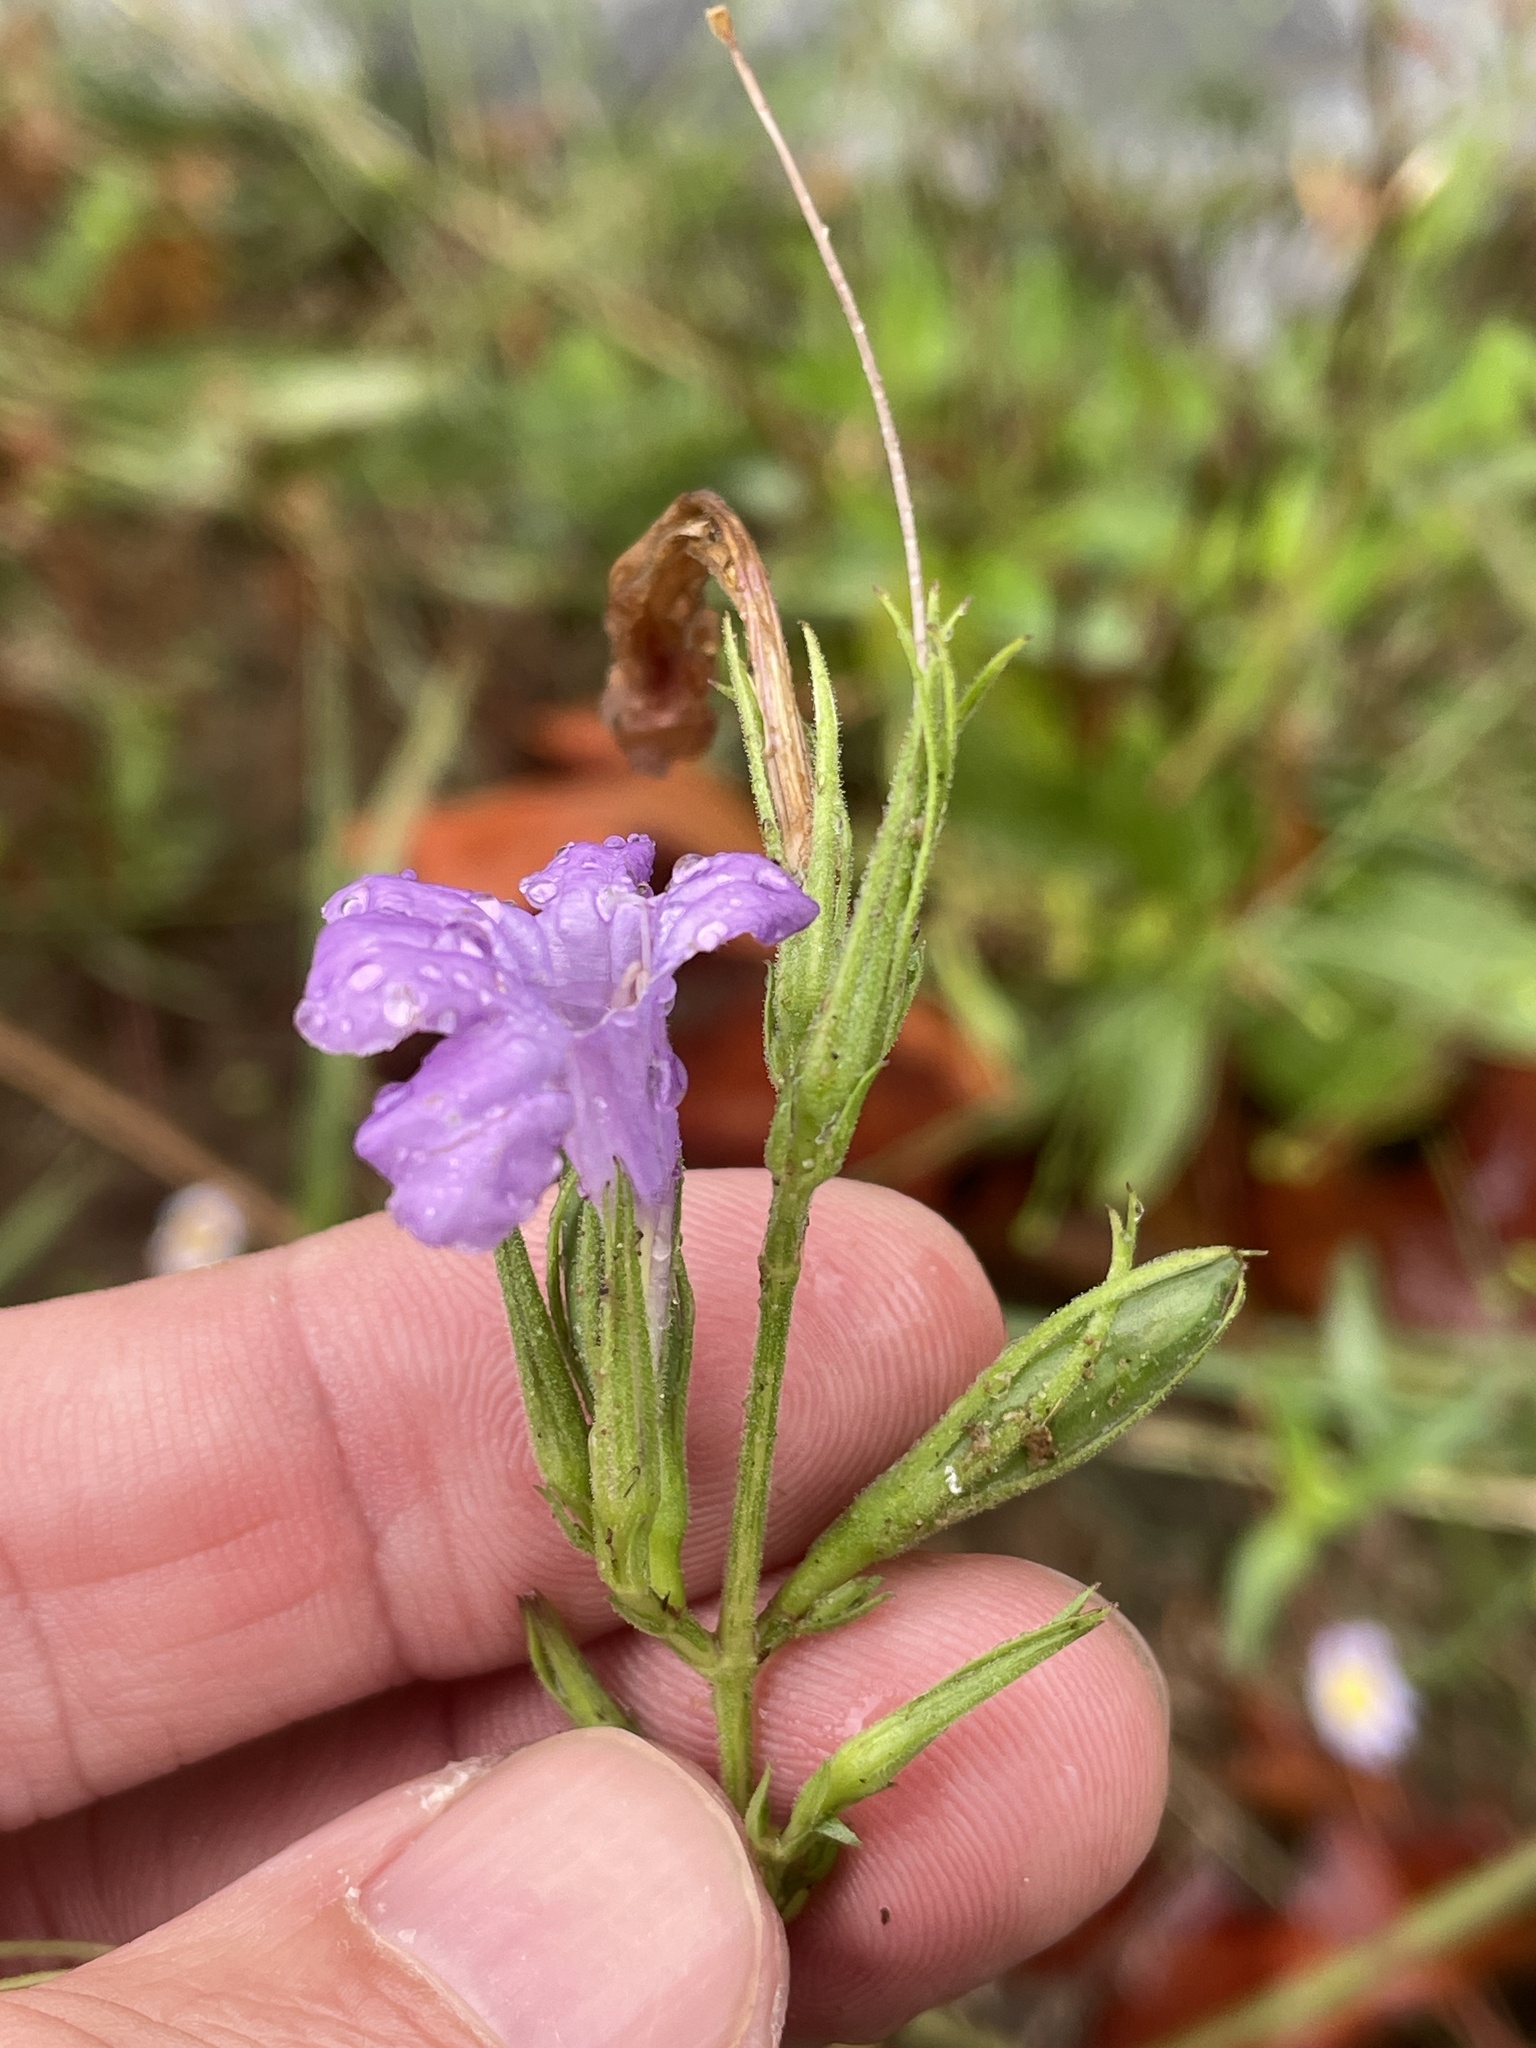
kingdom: Plantae
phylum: Tracheophyta
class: Magnoliopsida
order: Lamiales
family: Acanthaceae
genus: Ruellia
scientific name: Ruellia ciliatiflora
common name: Hairyflower wild petunia
